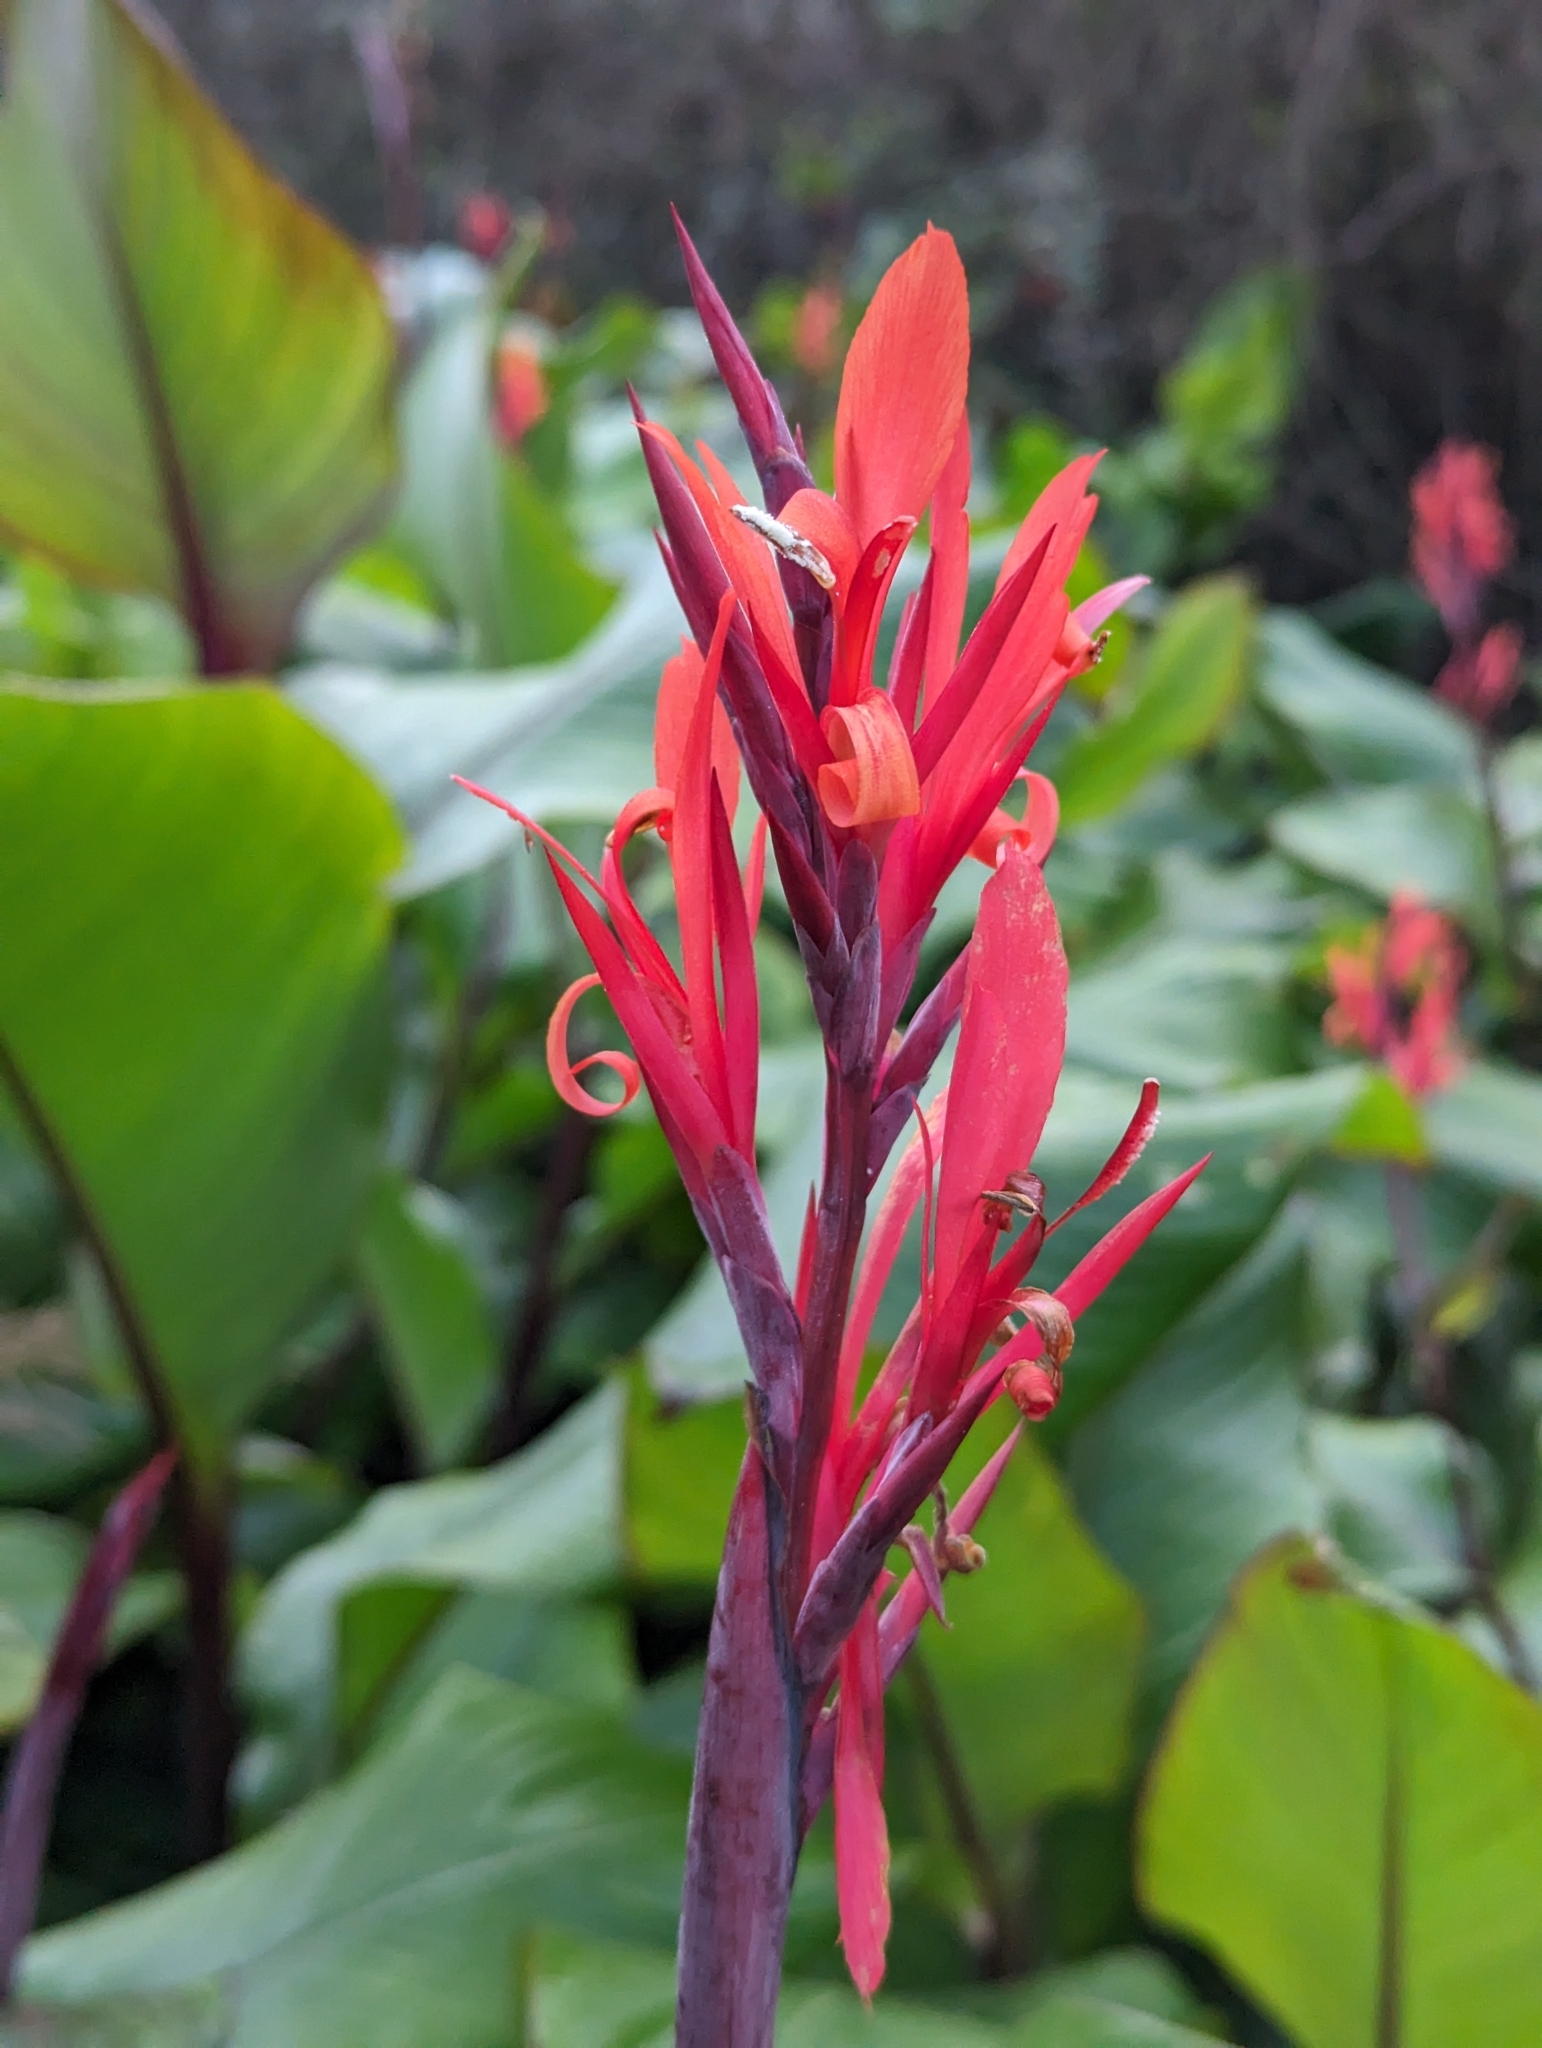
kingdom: Plantae
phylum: Tracheophyta
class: Liliopsida
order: Zingiberales
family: Cannaceae
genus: Canna
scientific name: Canna indica
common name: Indian shot
